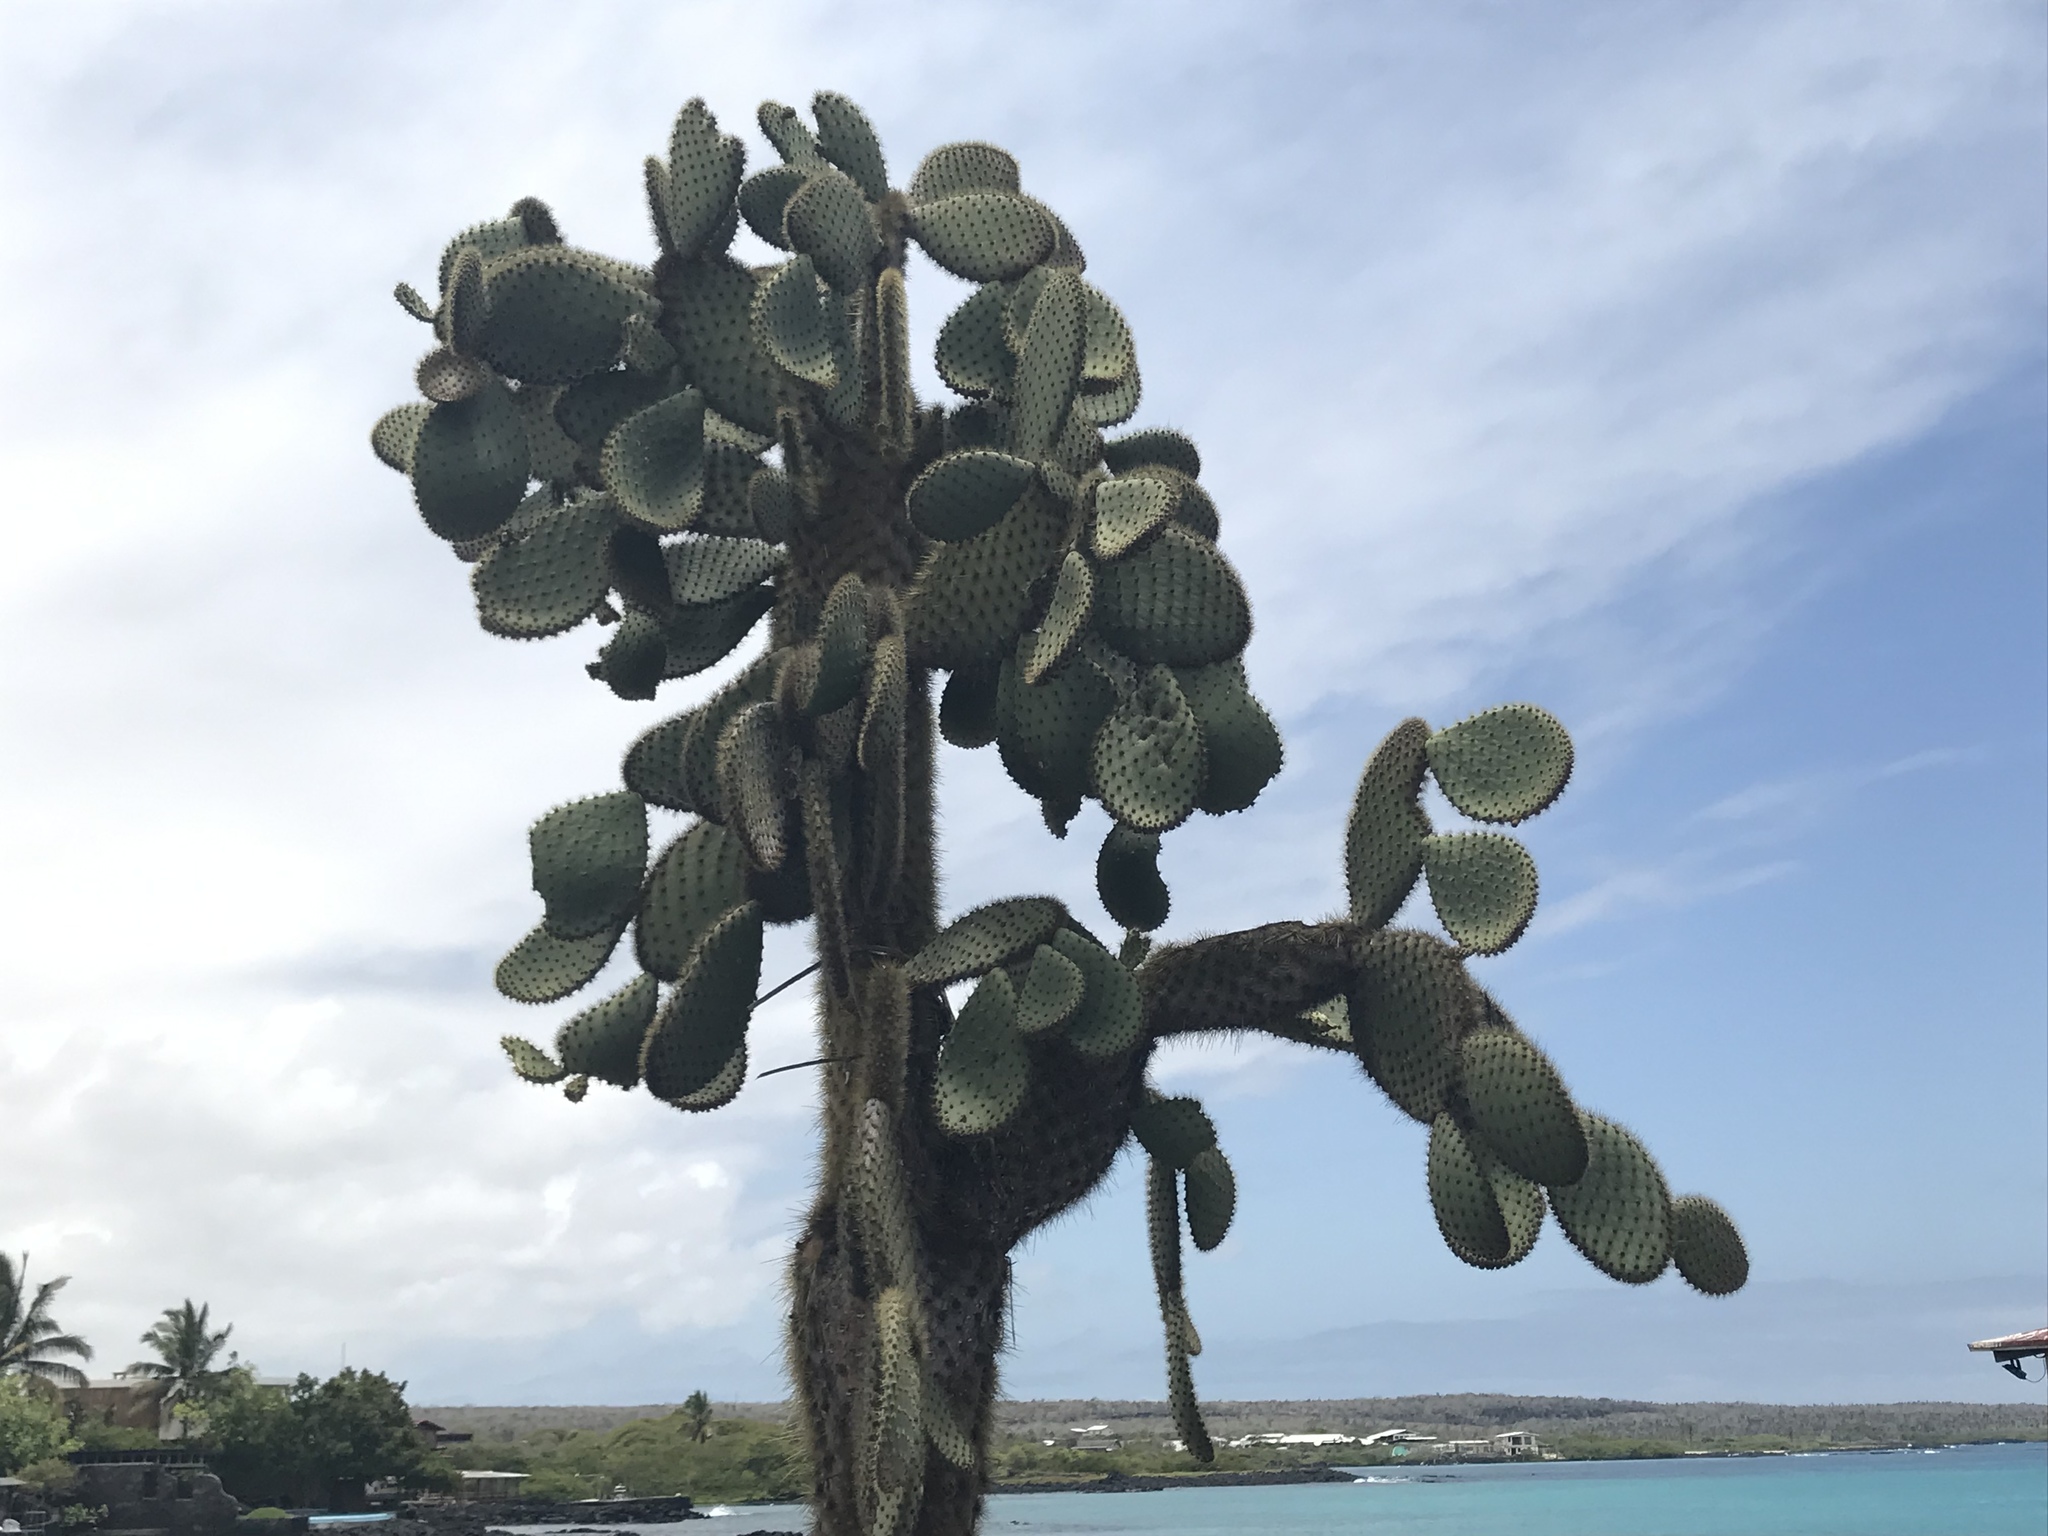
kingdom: Plantae
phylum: Tracheophyta
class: Magnoliopsida
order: Caryophyllales
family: Cactaceae
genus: Opuntia
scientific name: Opuntia galapageia
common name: Galápagos prickly pear
